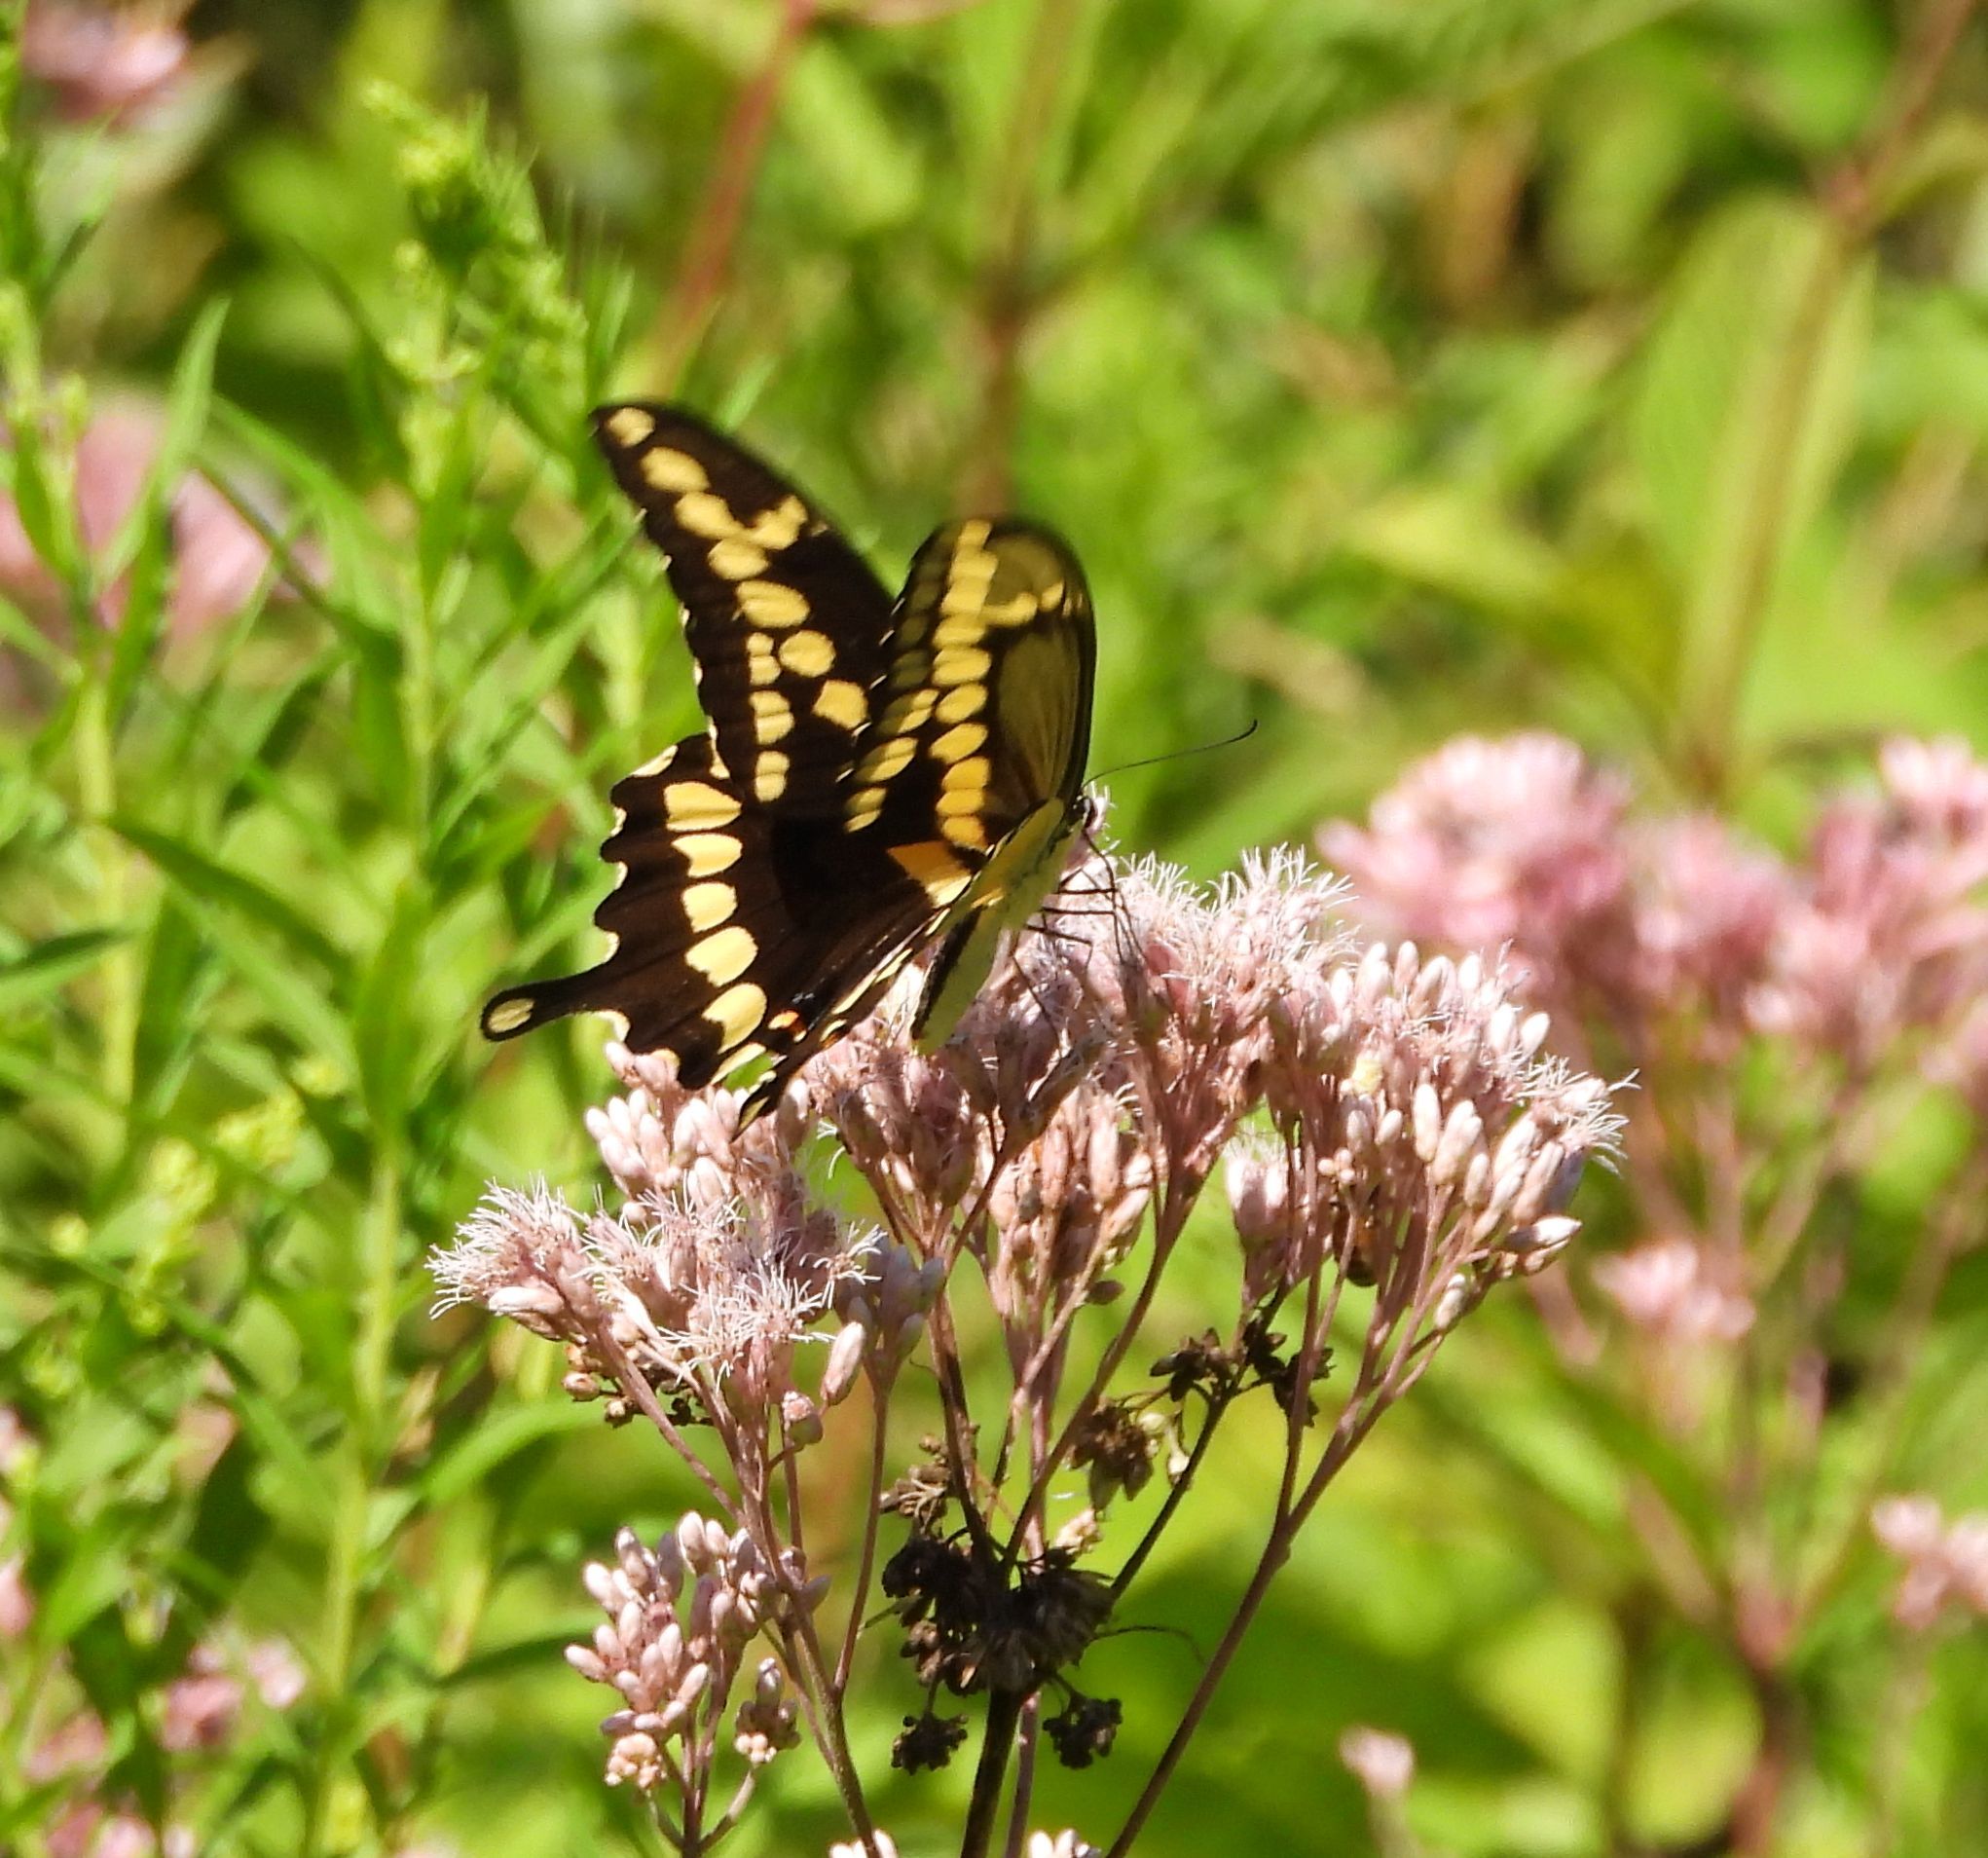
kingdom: Animalia
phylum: Arthropoda
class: Insecta
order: Lepidoptera
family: Papilionidae
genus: Papilio
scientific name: Papilio cresphontes
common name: Giant swallowtail
